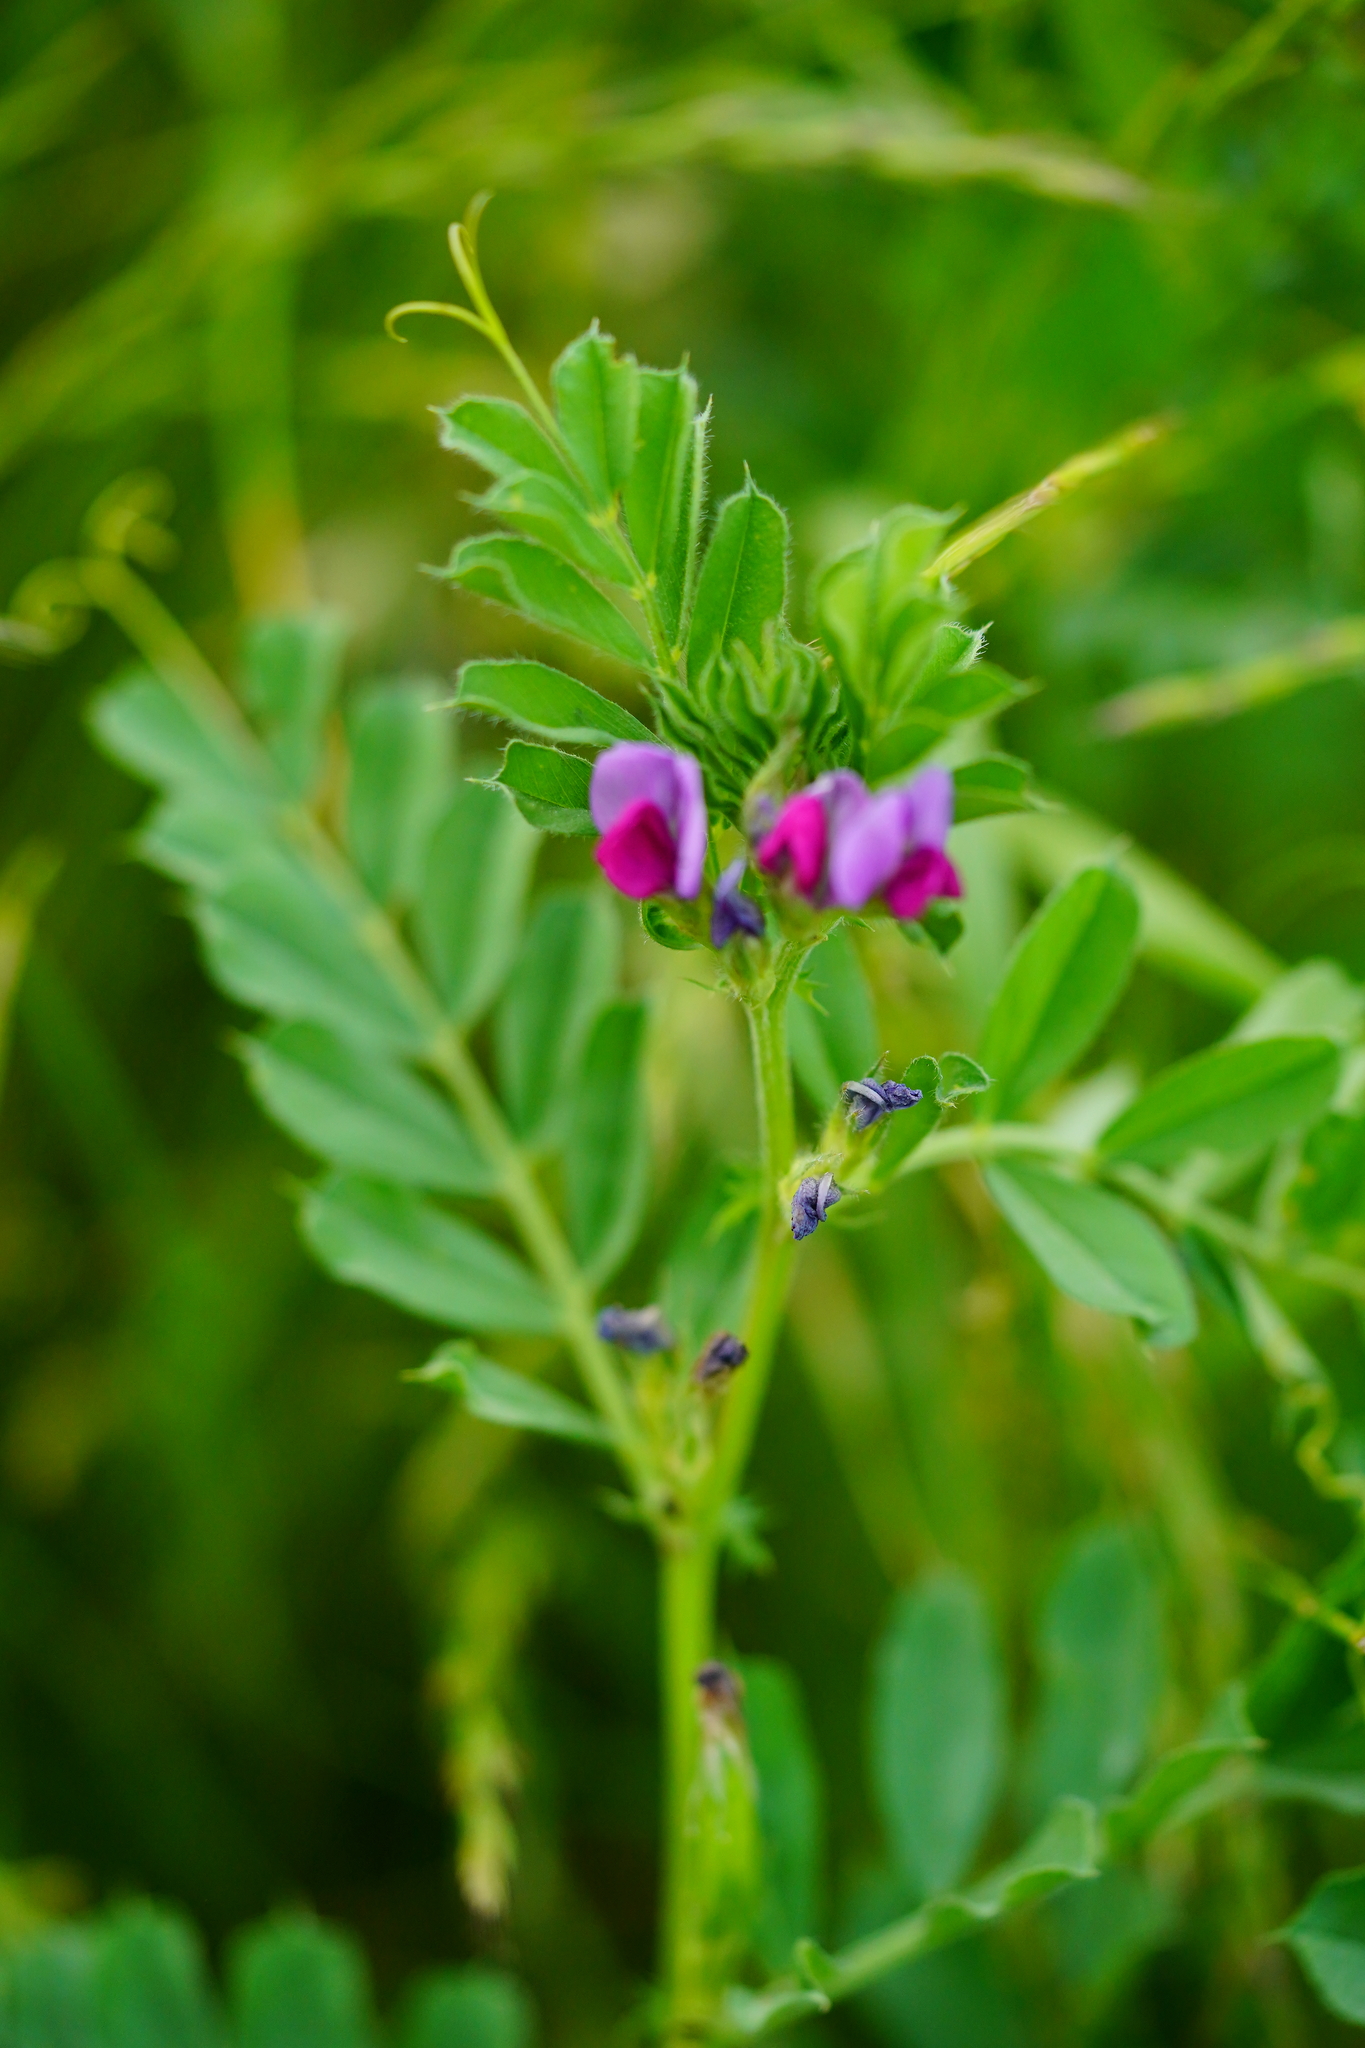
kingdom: Plantae
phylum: Tracheophyta
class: Magnoliopsida
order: Fabales
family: Fabaceae
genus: Vicia
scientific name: Vicia sativa
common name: Garden vetch
